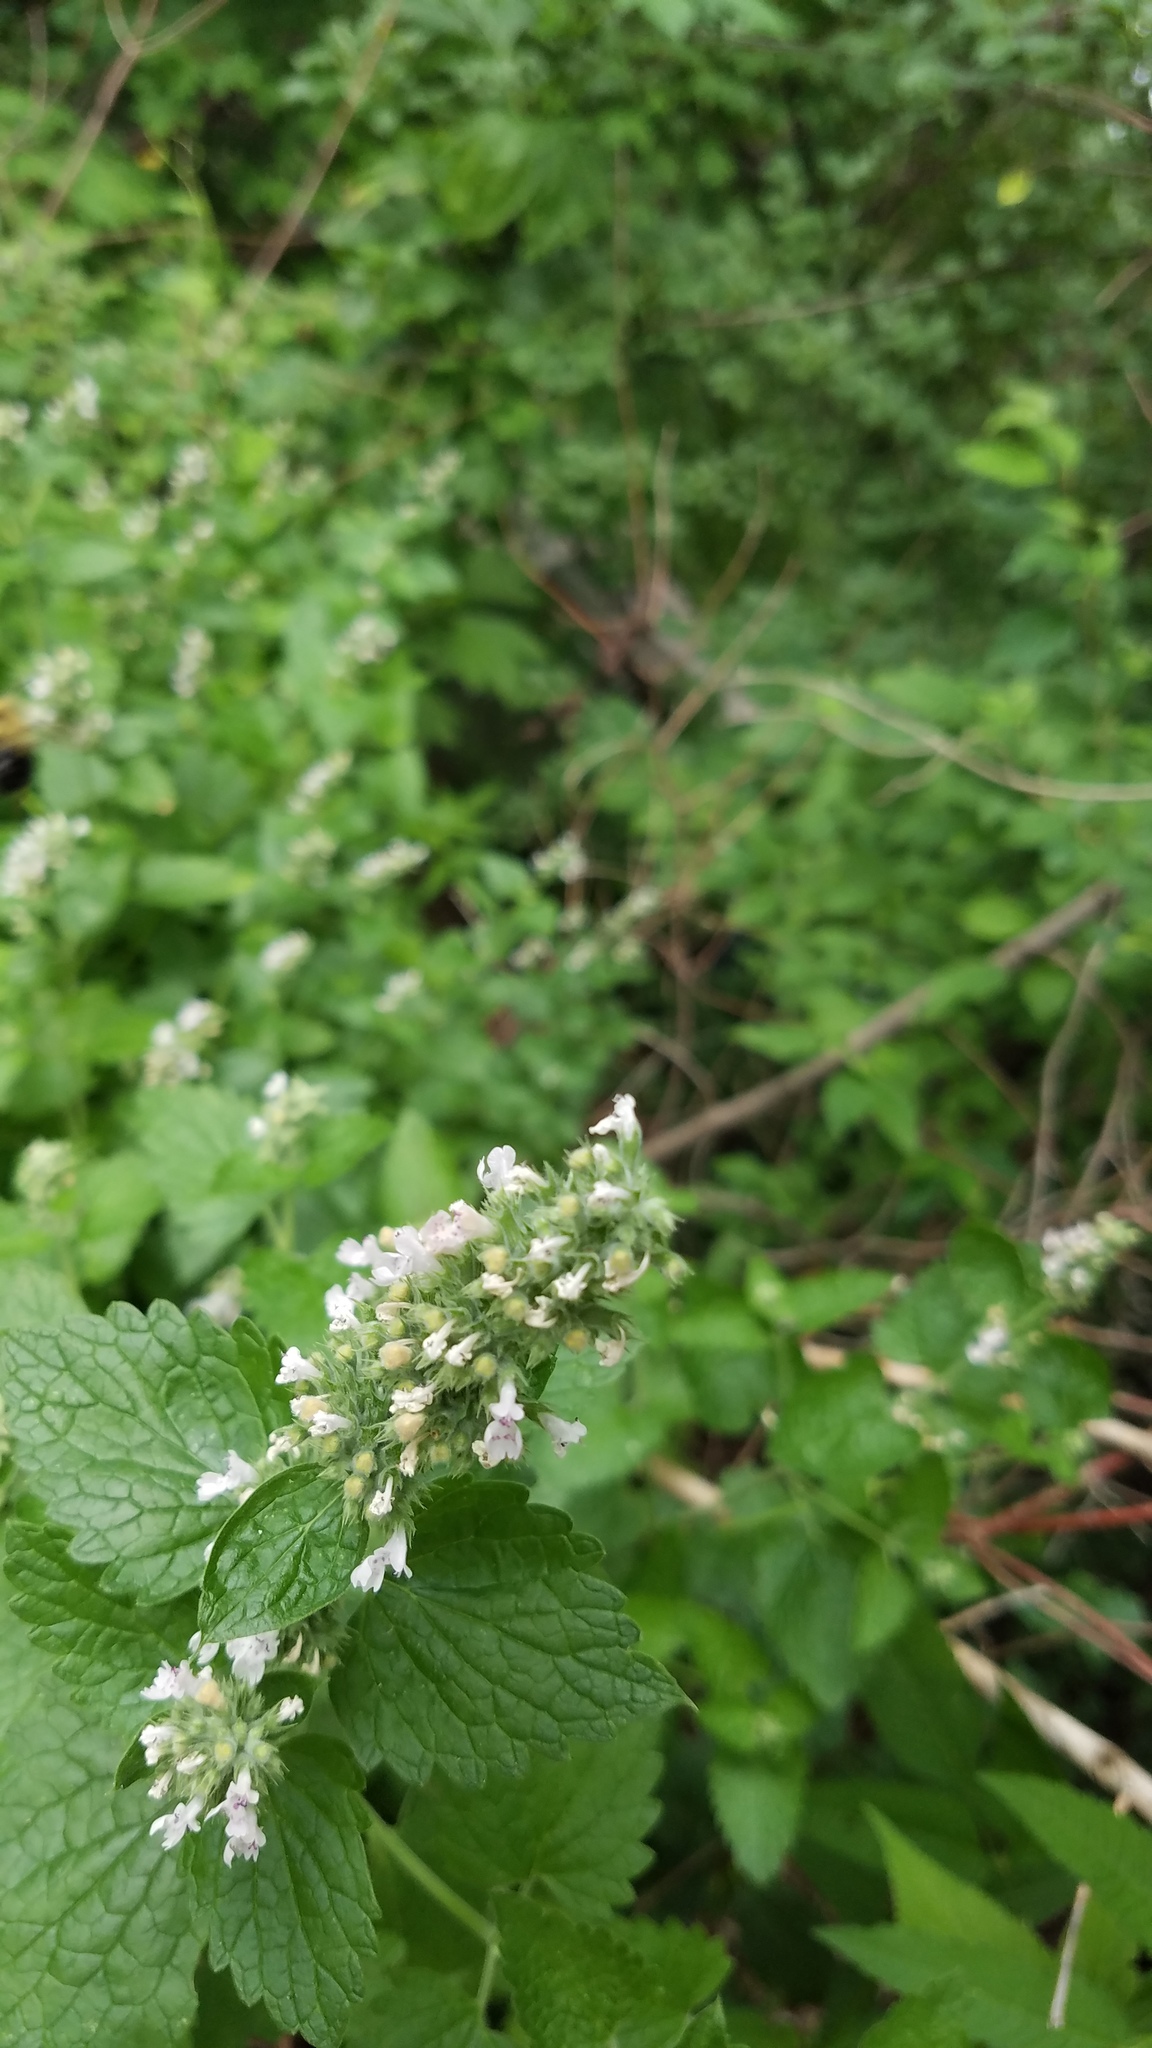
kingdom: Plantae
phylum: Tracheophyta
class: Magnoliopsida
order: Lamiales
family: Lamiaceae
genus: Nepeta
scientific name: Nepeta cataria
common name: Catnip
